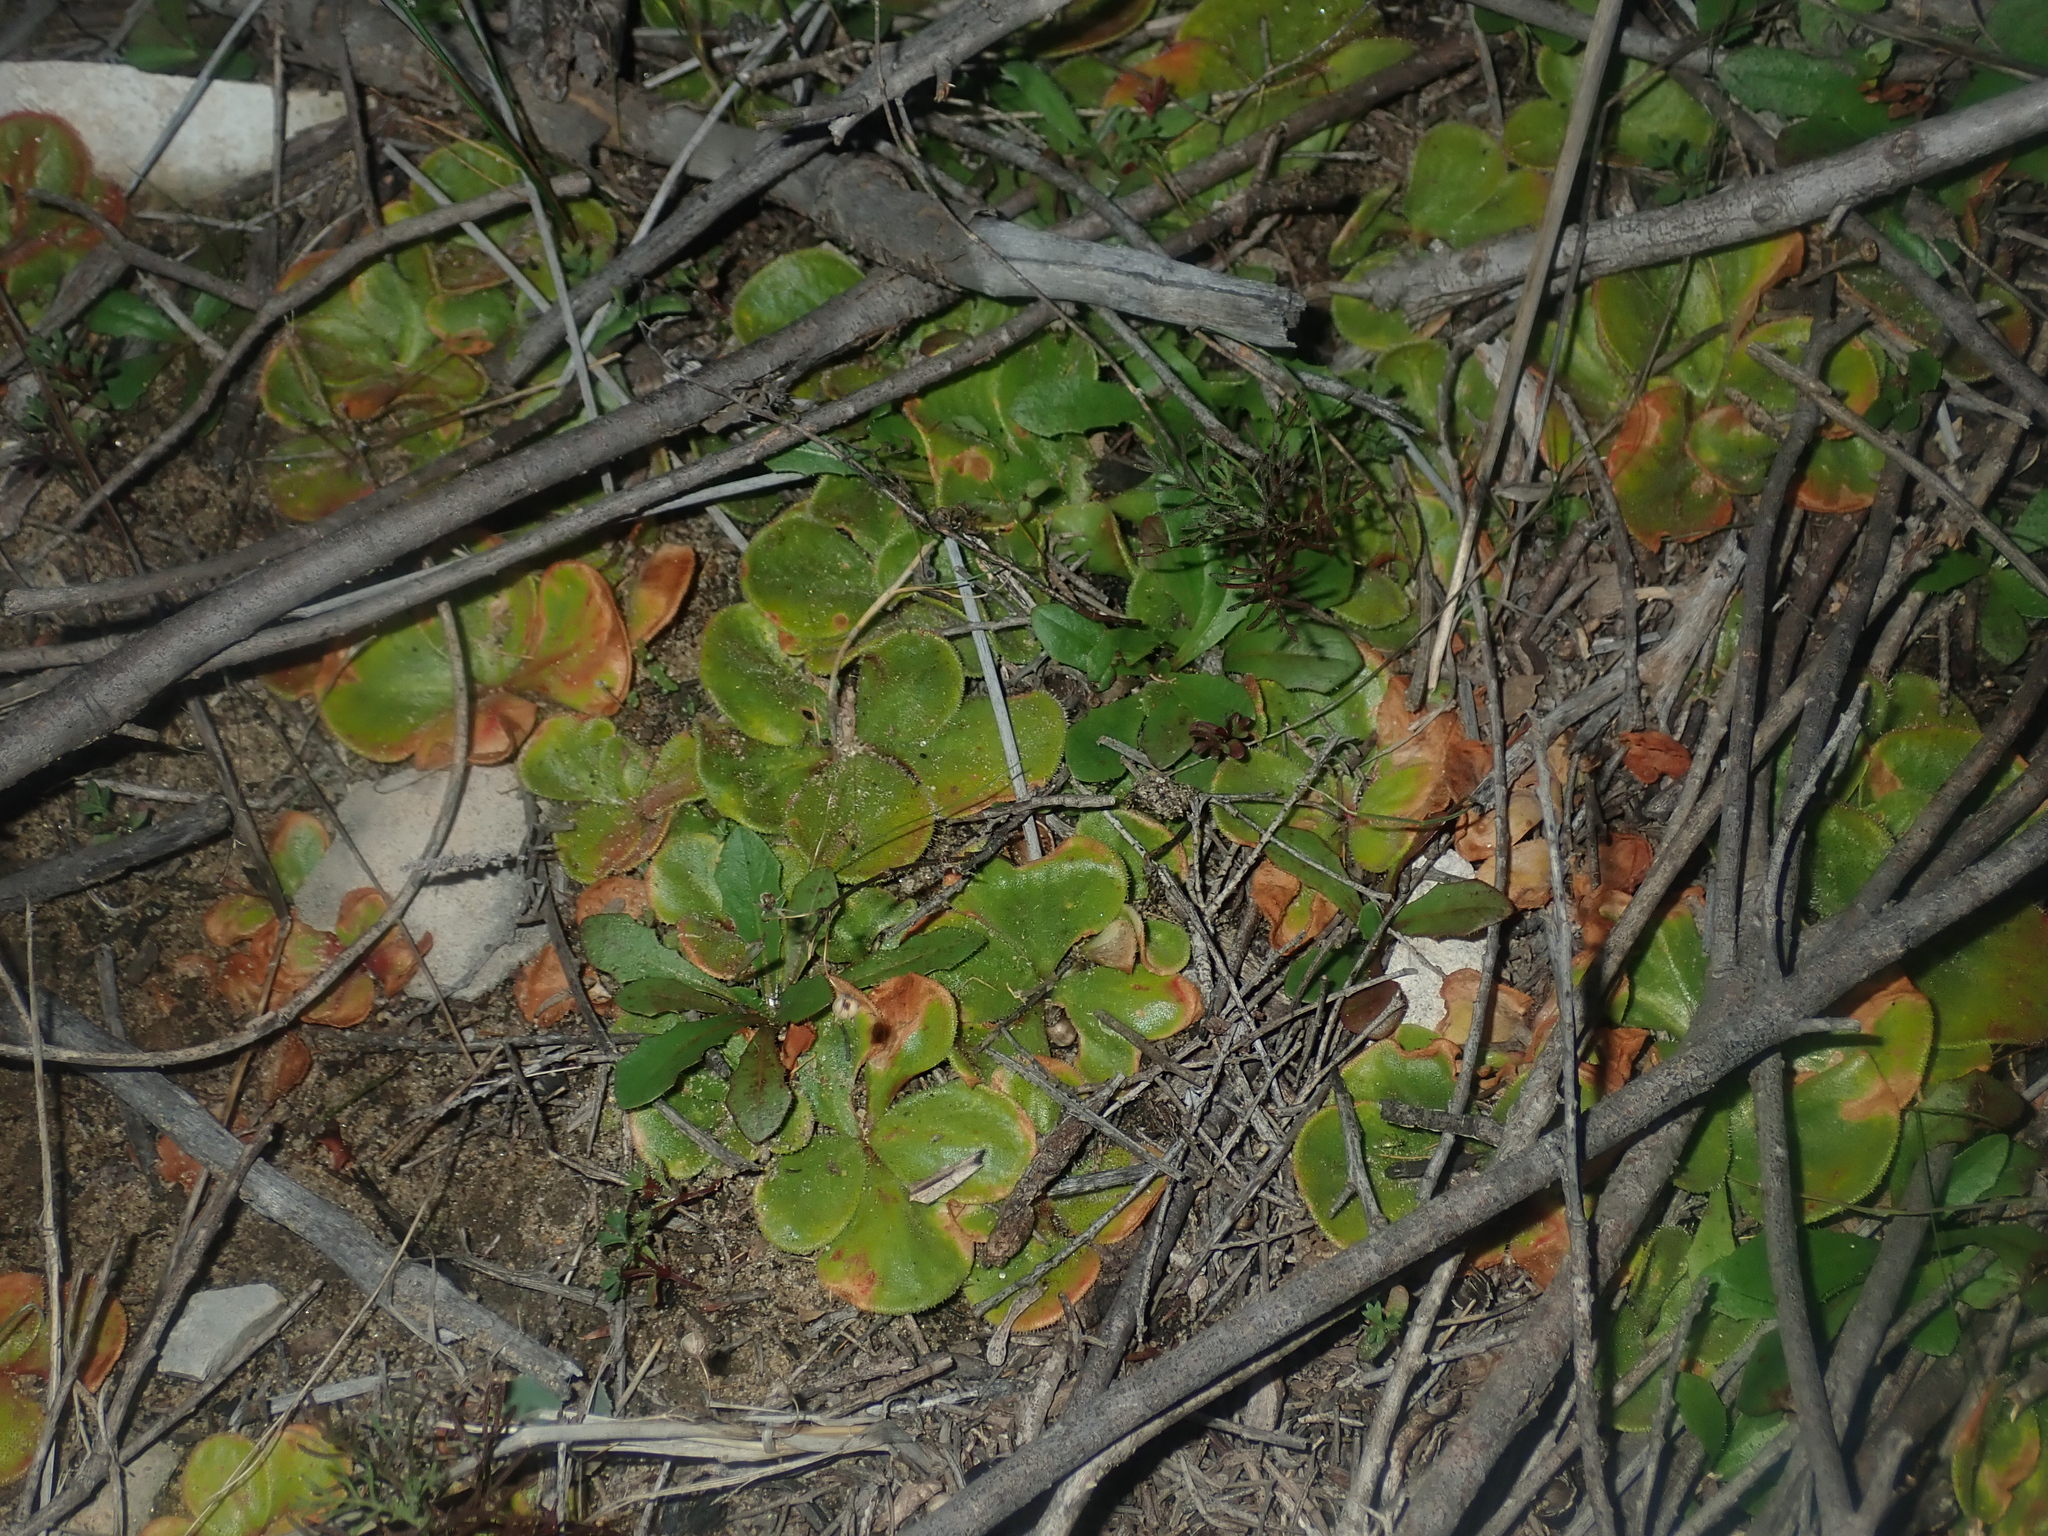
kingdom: Plantae
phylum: Tracheophyta
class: Magnoliopsida
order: Caryophyllales
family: Droseraceae
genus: Drosera
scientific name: Drosera erythrorhiza
